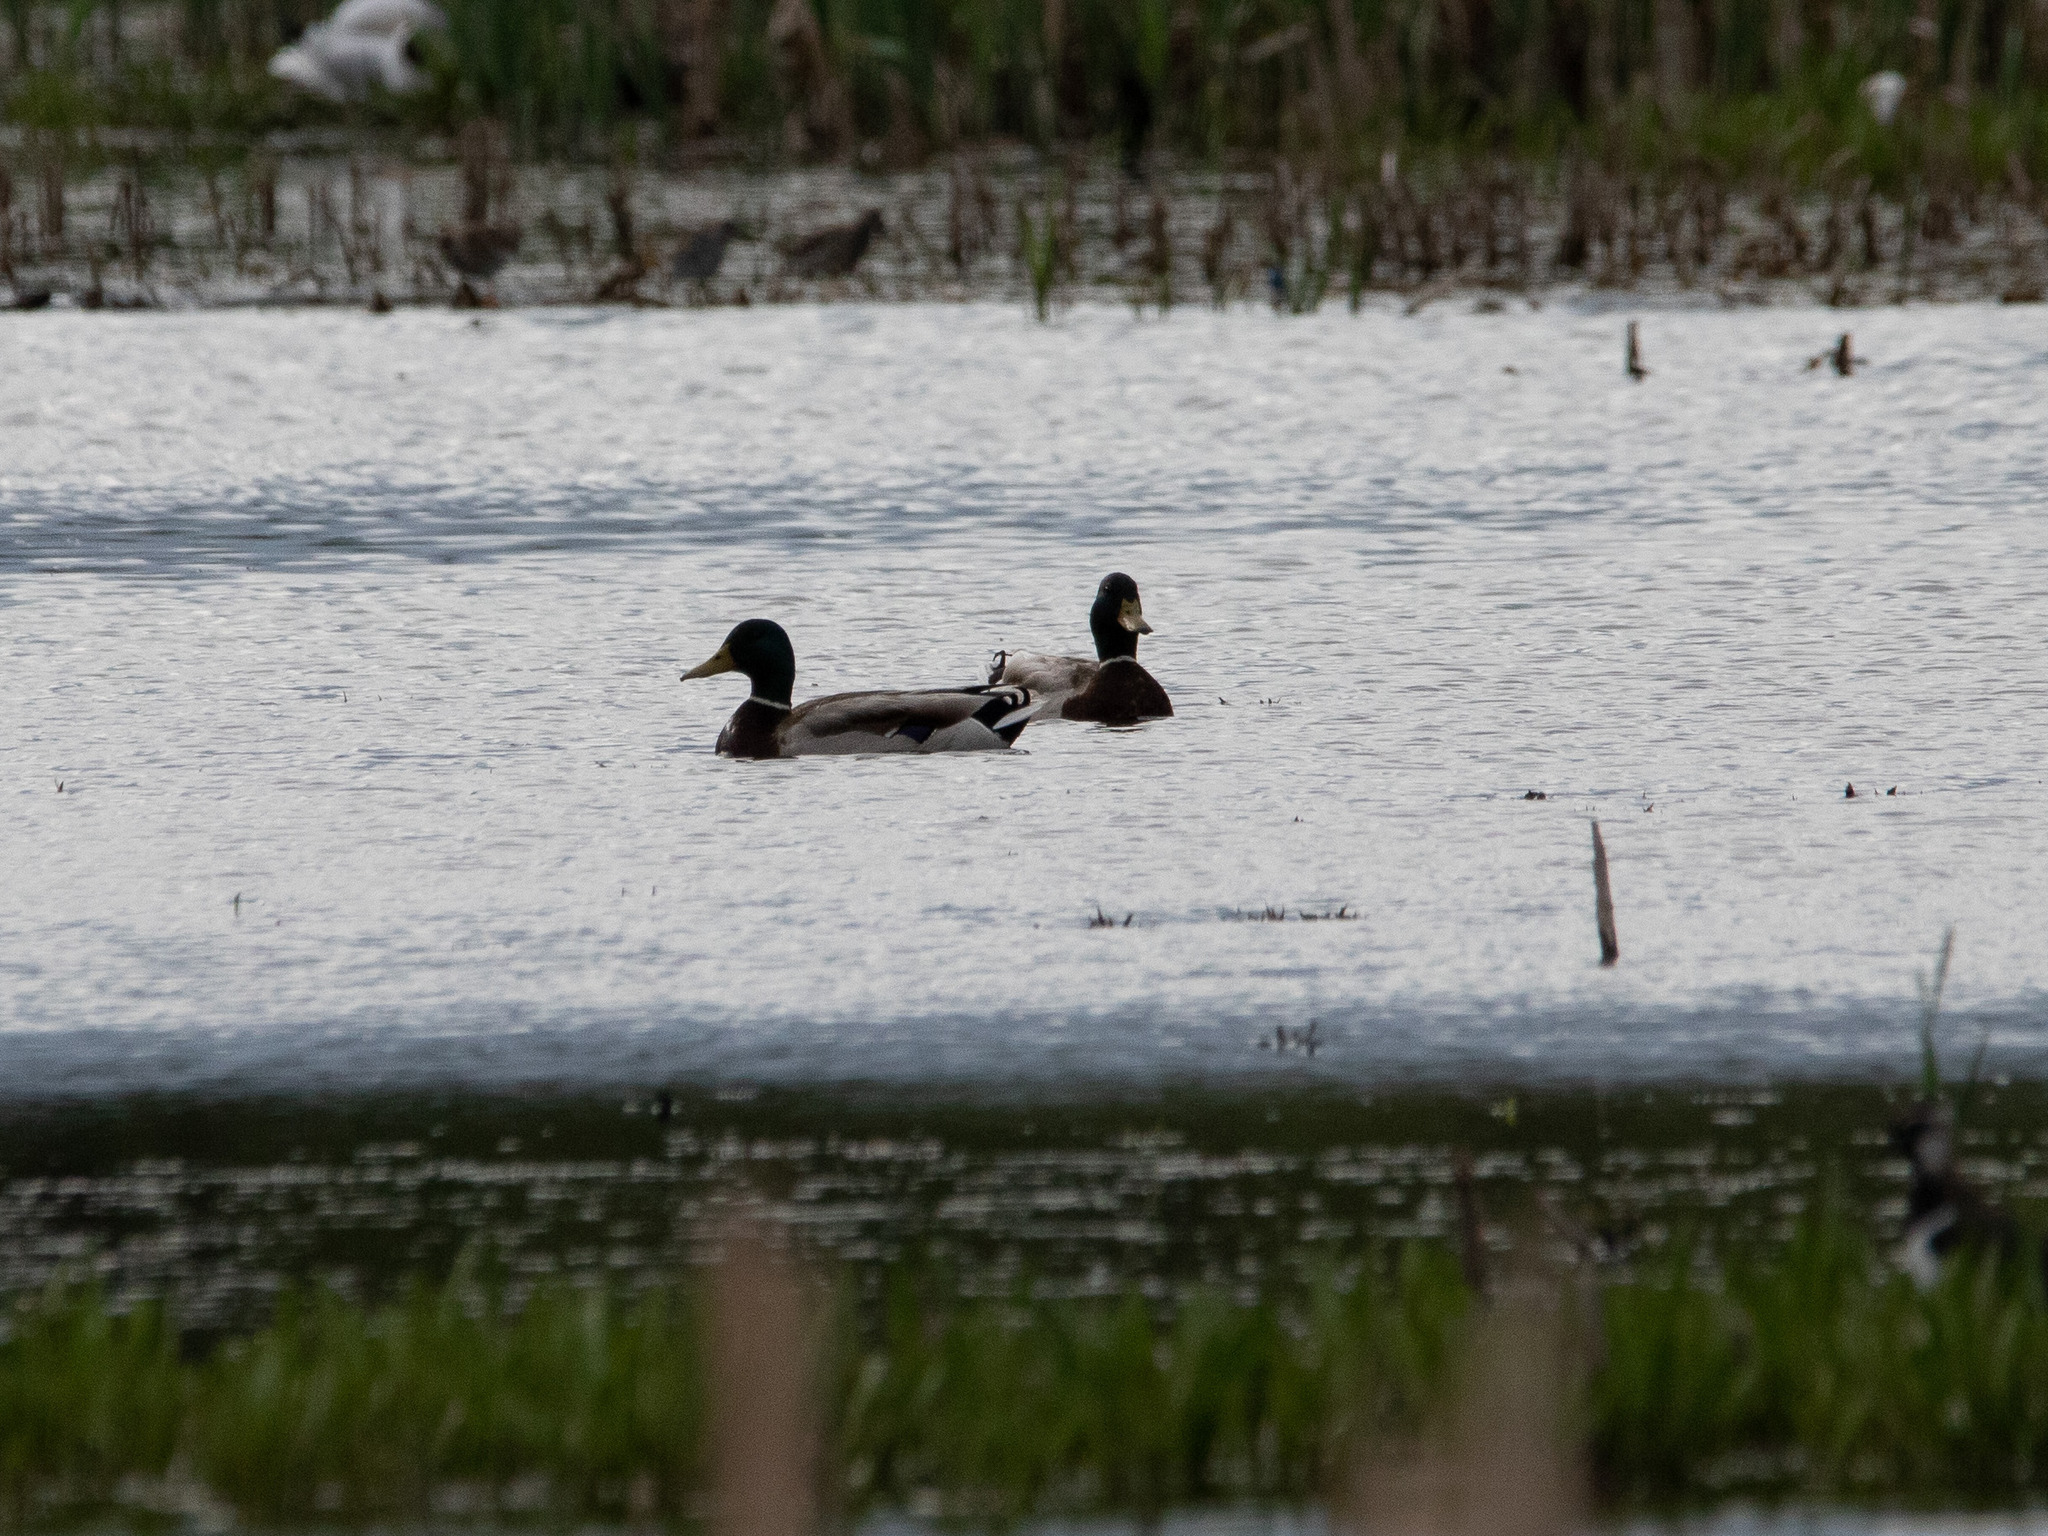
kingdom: Animalia
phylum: Chordata
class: Aves
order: Anseriformes
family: Anatidae
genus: Anas
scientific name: Anas platyrhynchos
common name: Mallard
